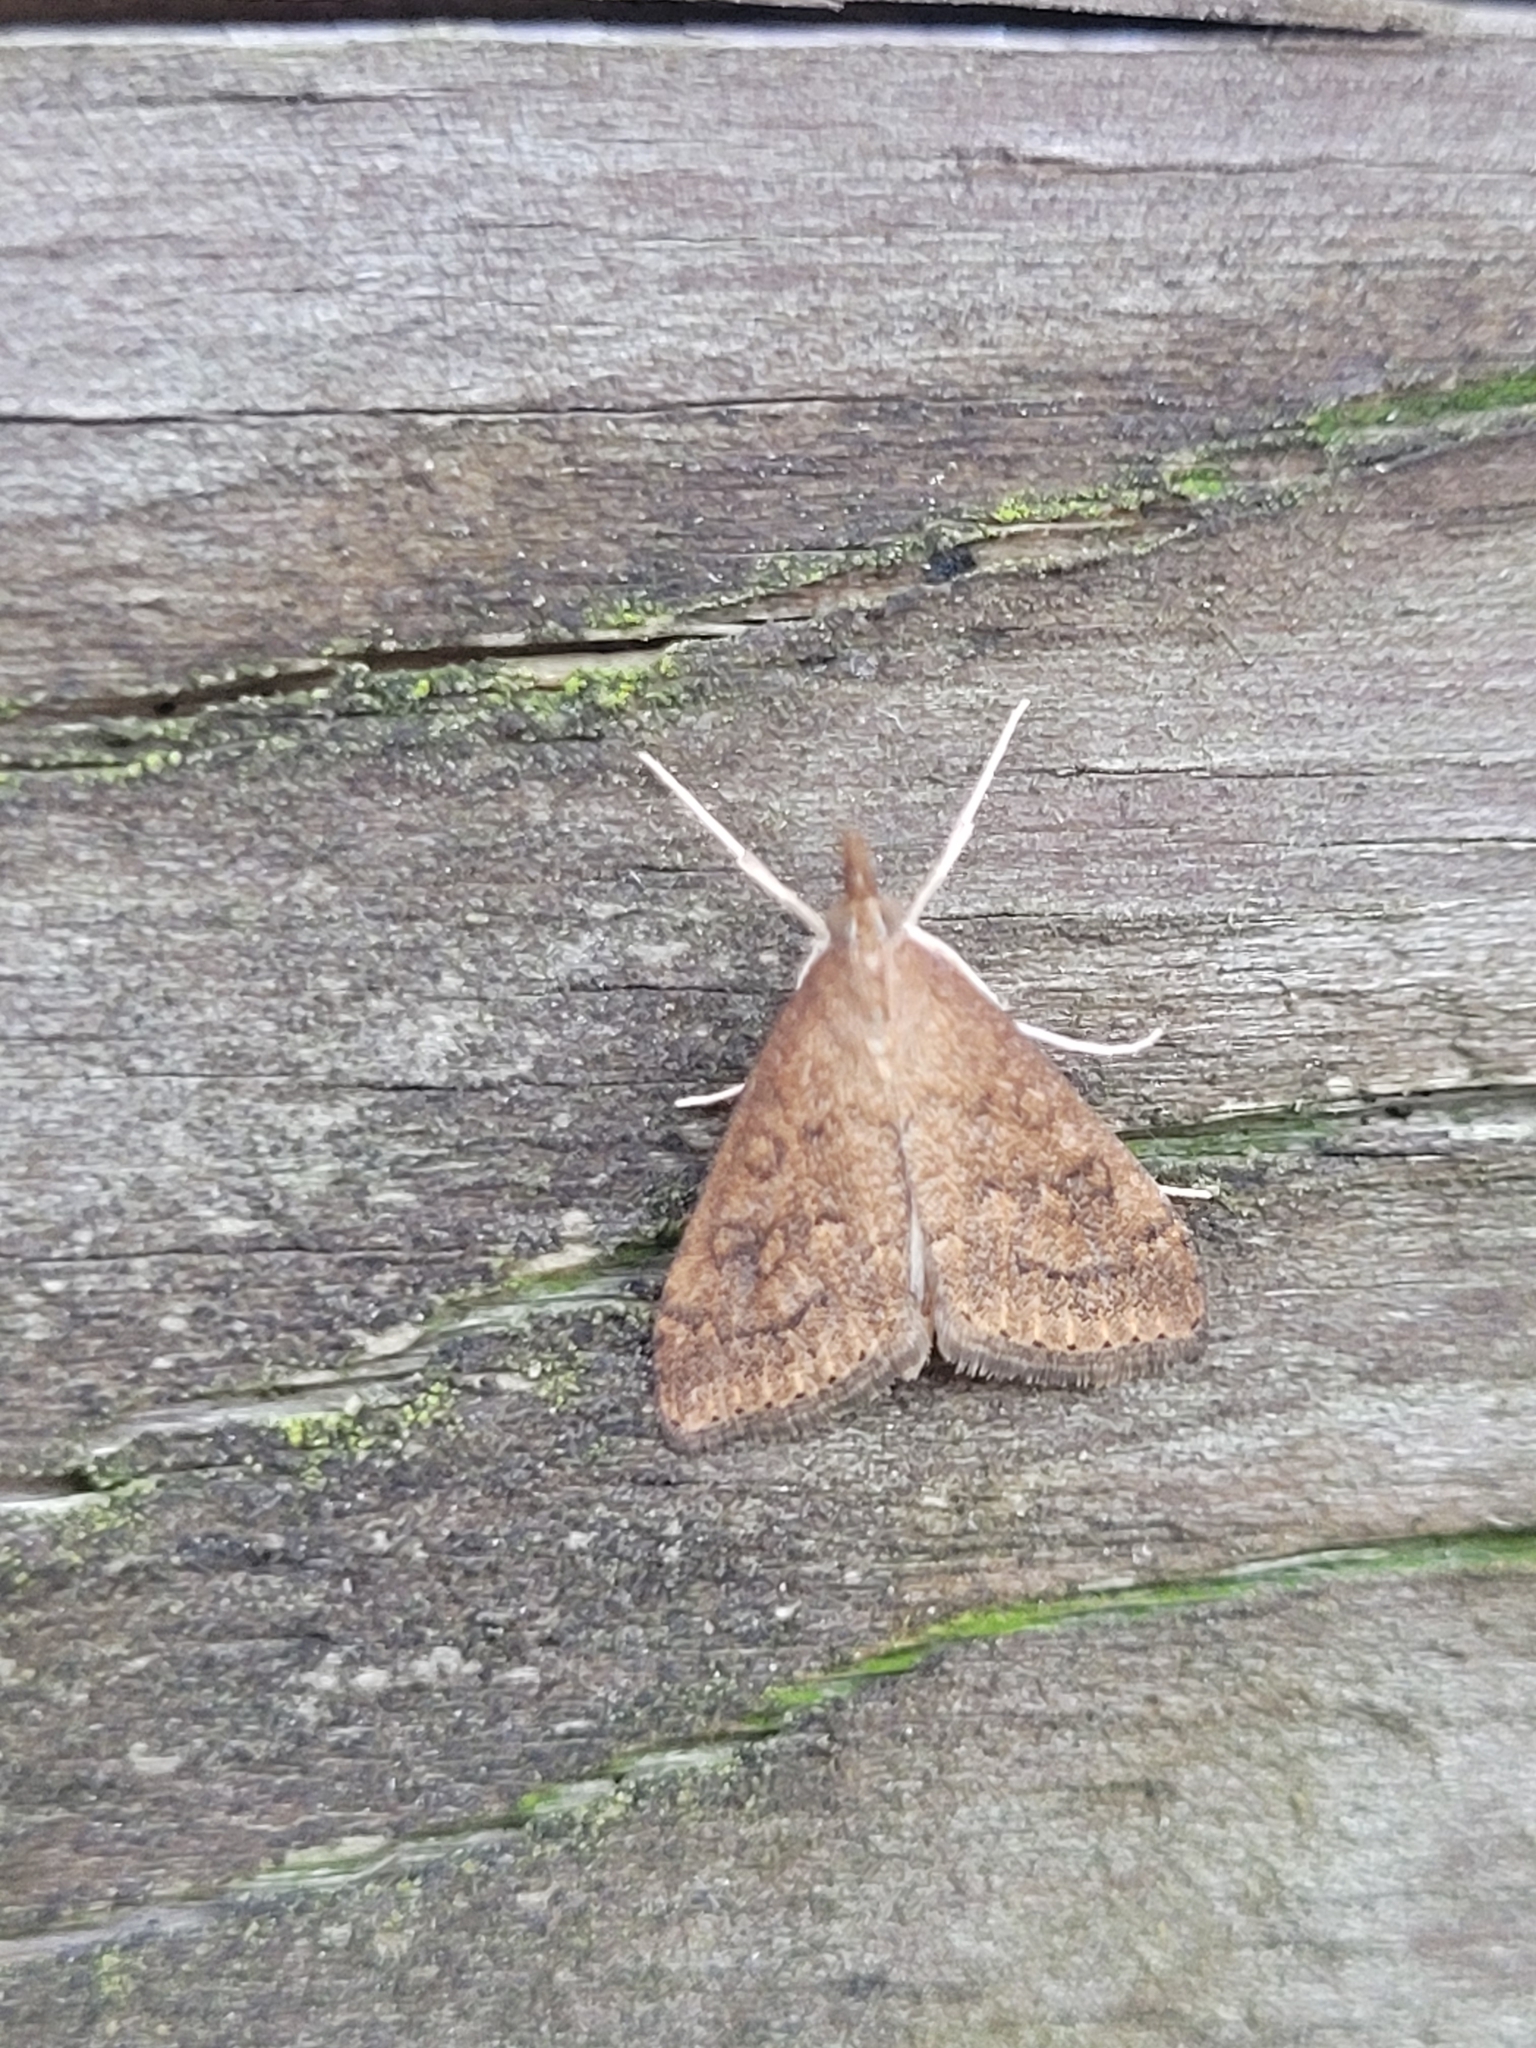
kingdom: Animalia
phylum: Arthropoda
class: Insecta
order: Lepidoptera
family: Crambidae
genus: Udea
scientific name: Udea rubigalis
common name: Celery leaftier moth
